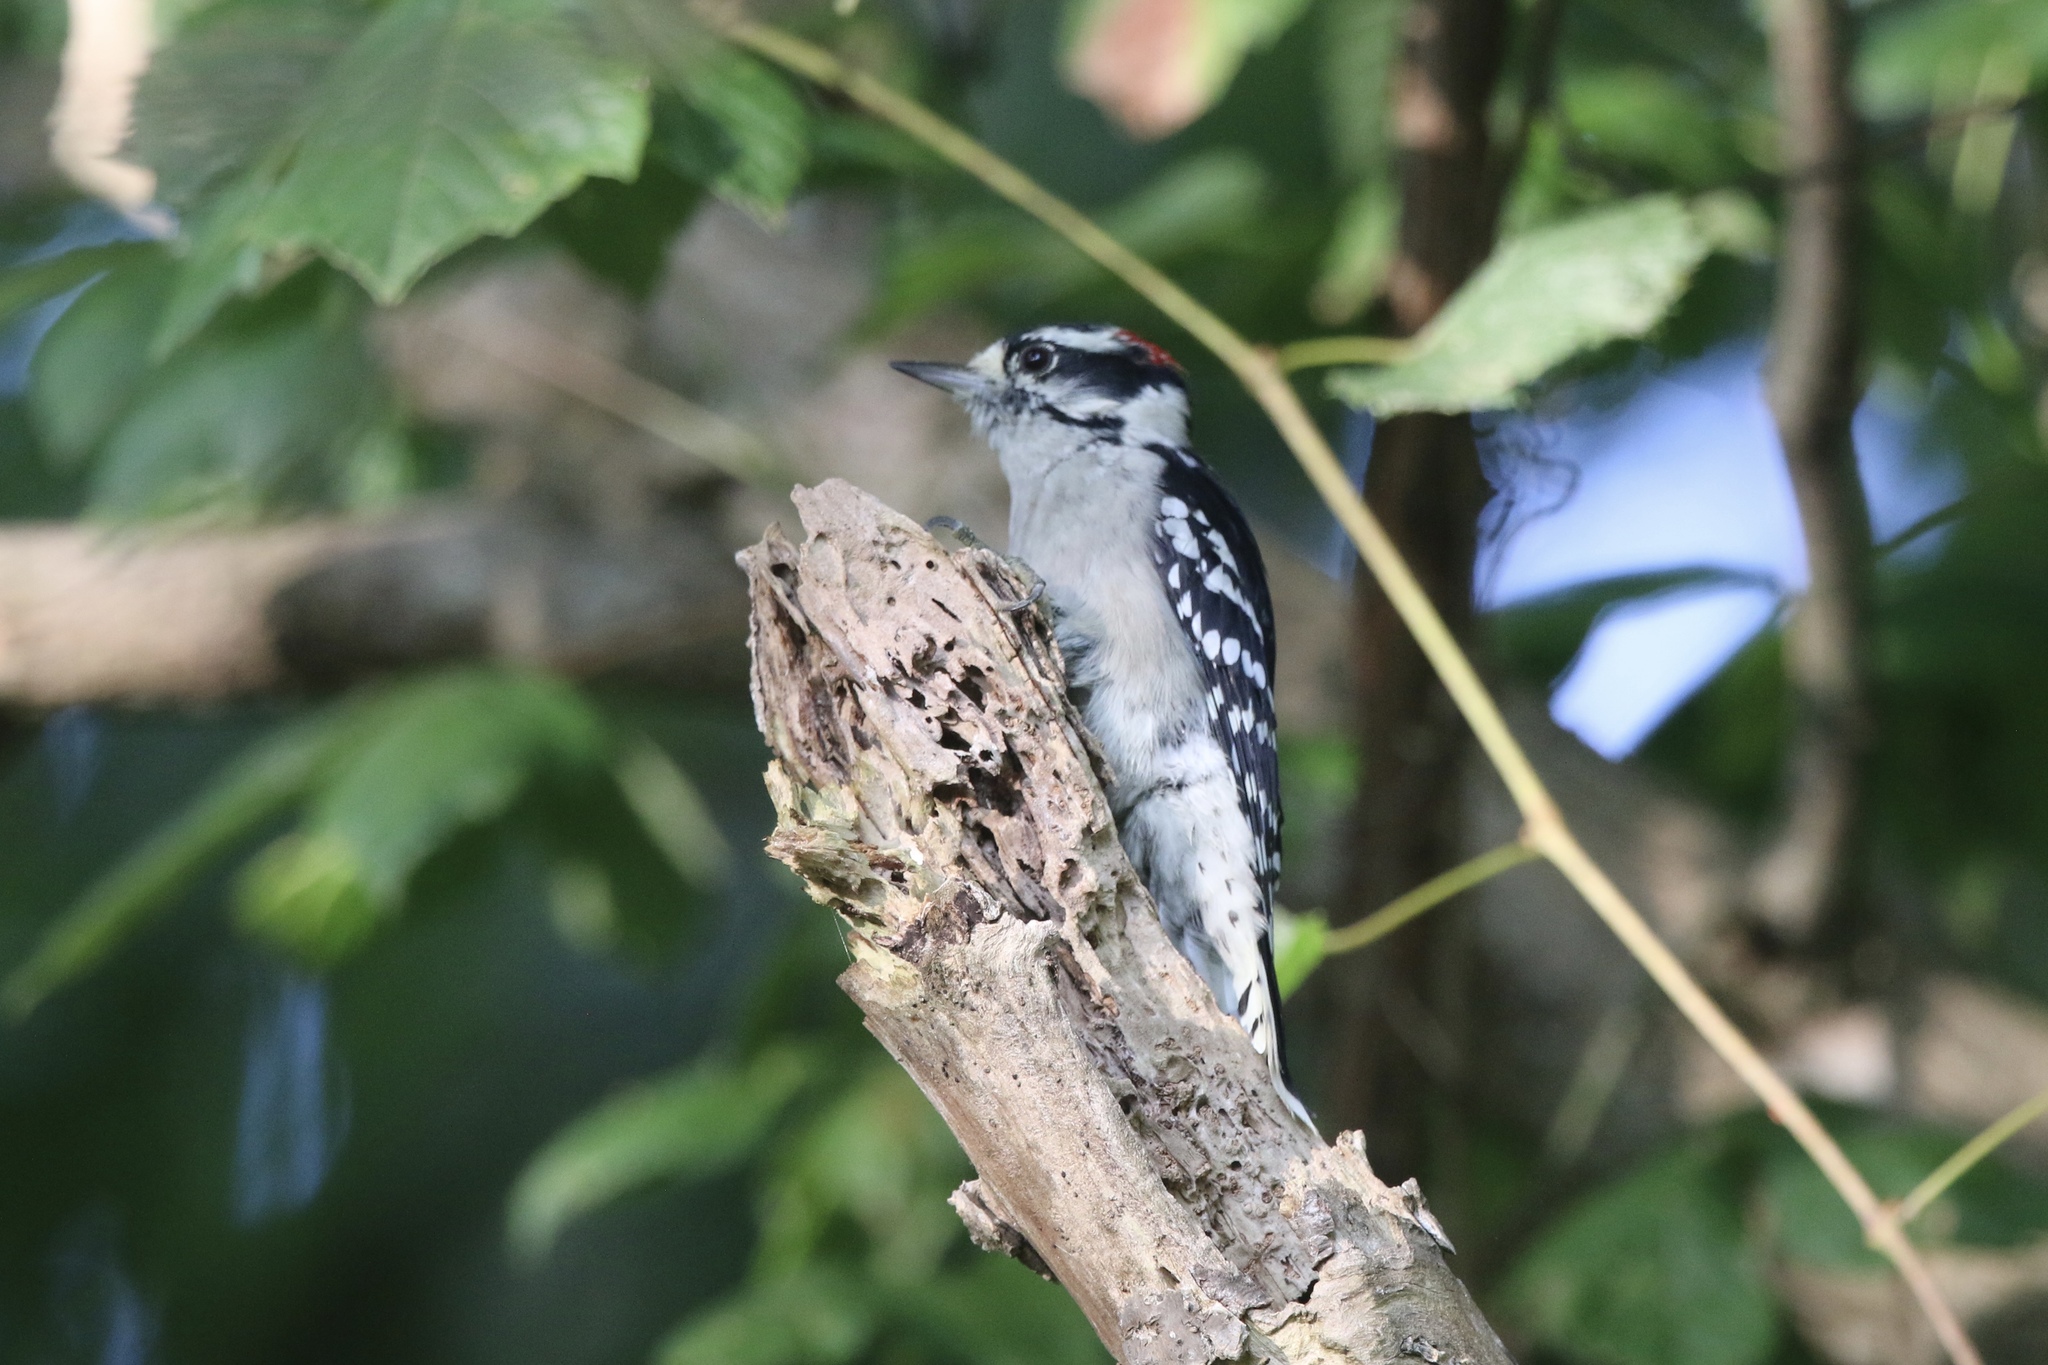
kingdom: Animalia
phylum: Chordata
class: Aves
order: Piciformes
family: Picidae
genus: Dryobates
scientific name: Dryobates pubescens
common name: Downy woodpecker
